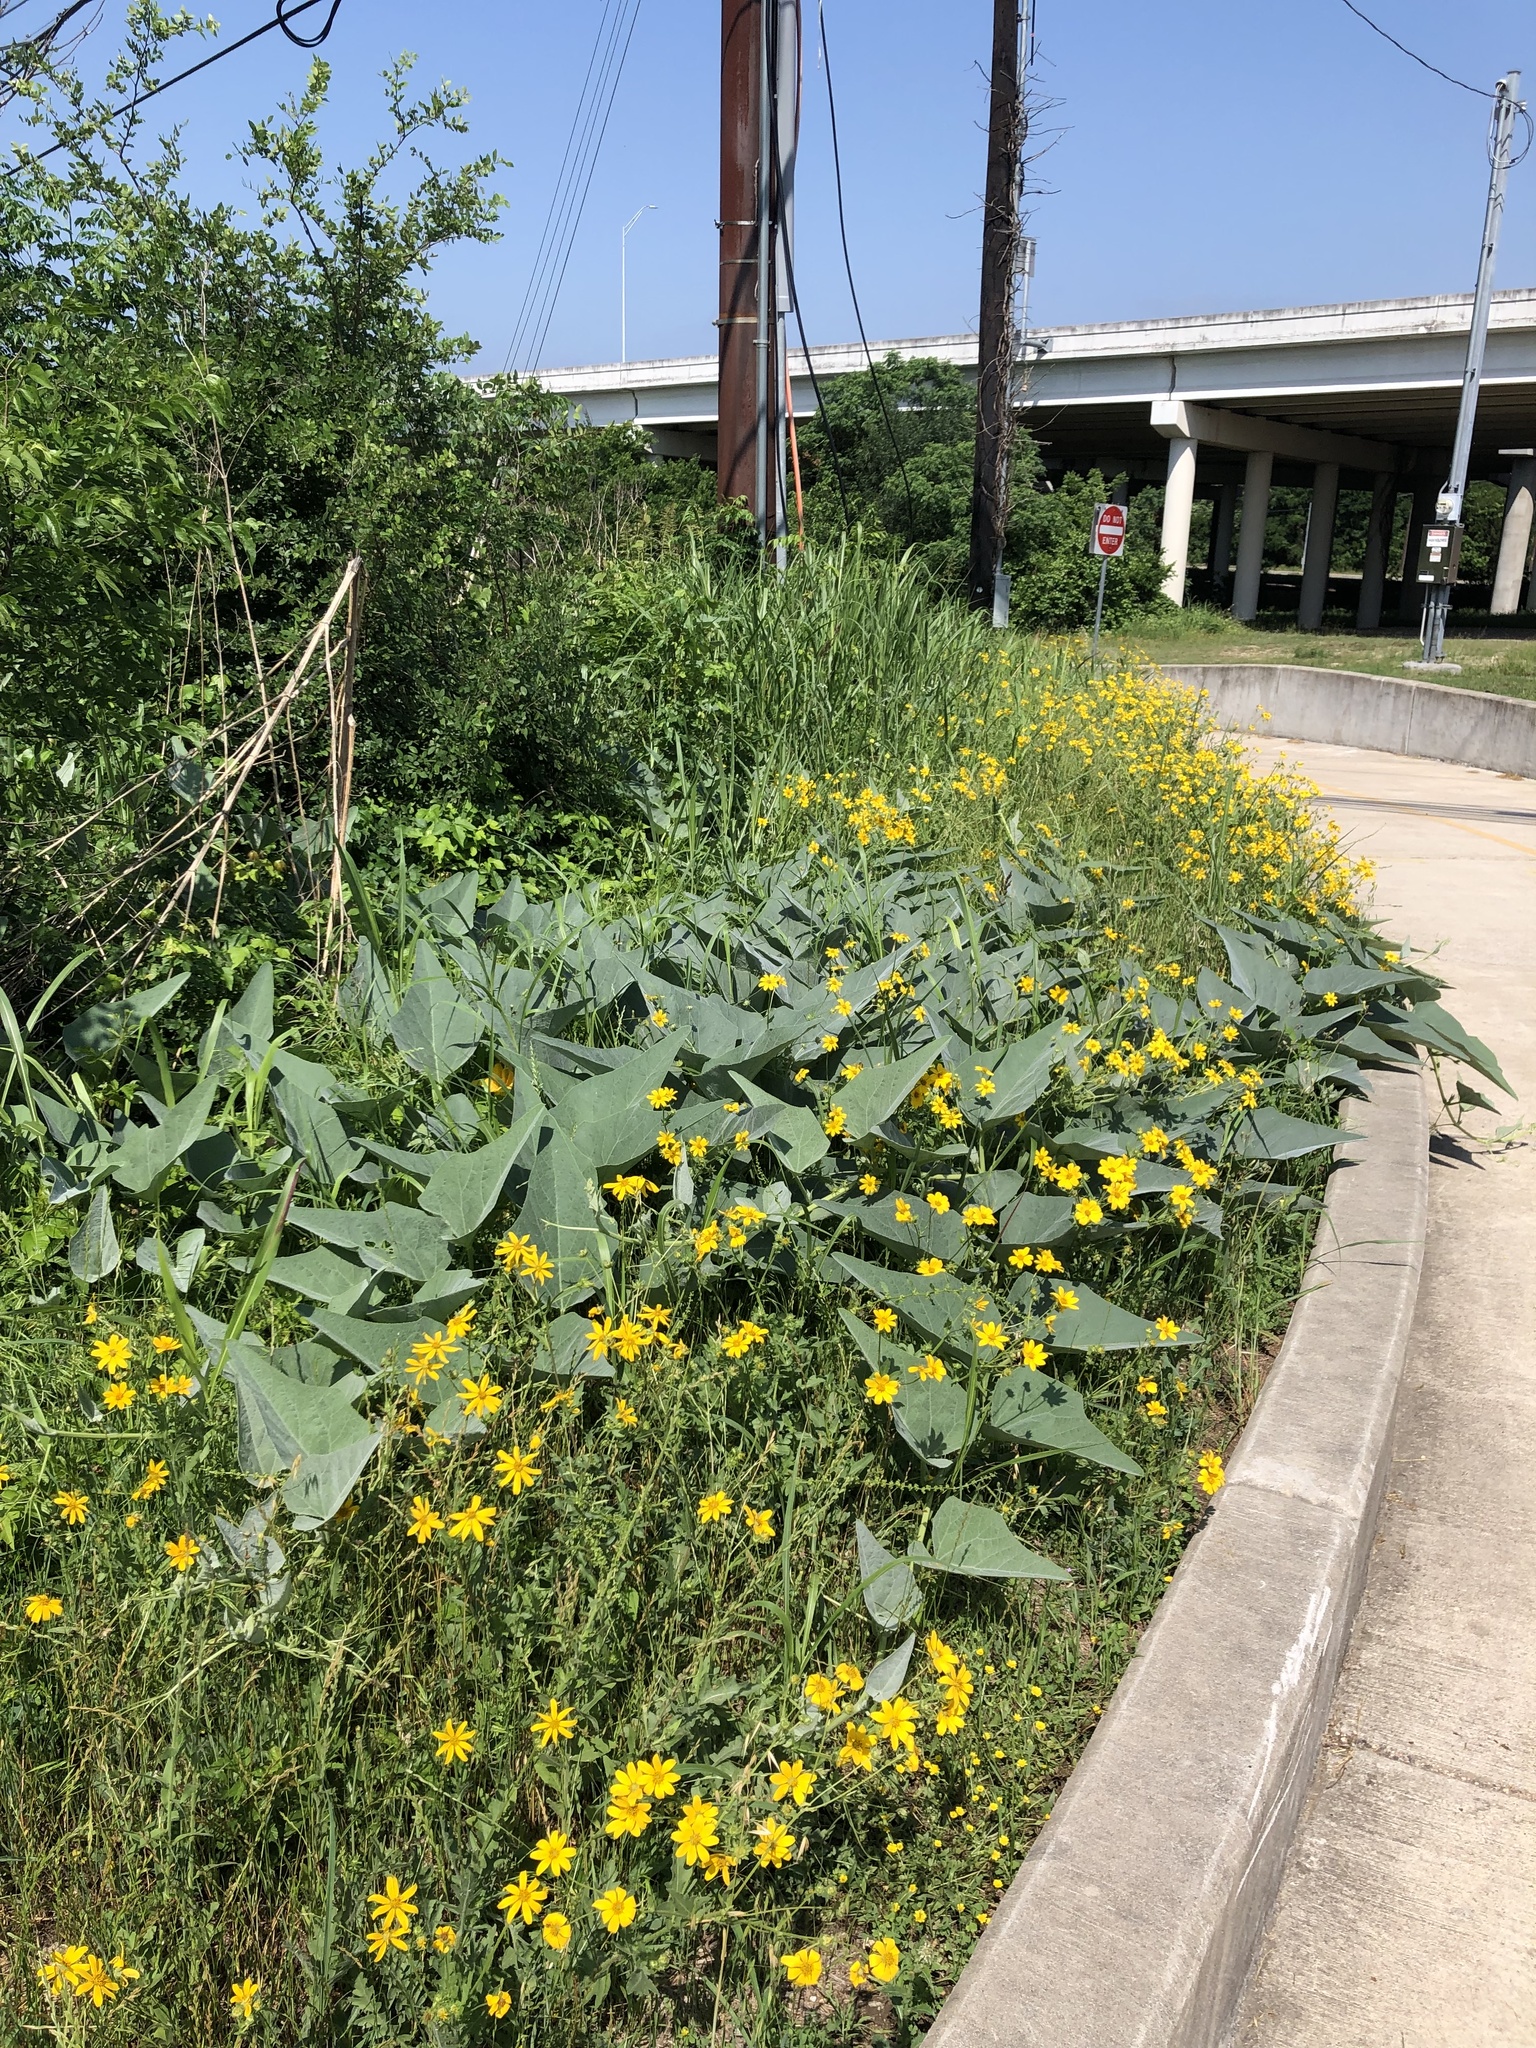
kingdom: Plantae
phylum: Tracheophyta
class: Magnoliopsida
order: Cucurbitales
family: Cucurbitaceae
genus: Cucurbita
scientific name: Cucurbita foetidissima
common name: Buffalo gourd
